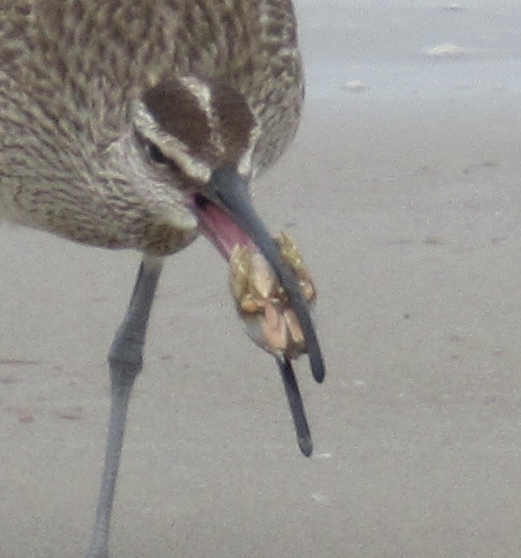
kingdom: Animalia
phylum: Arthropoda
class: Malacostraca
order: Decapoda
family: Hippidae
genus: Emerita
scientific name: Emerita analoga
